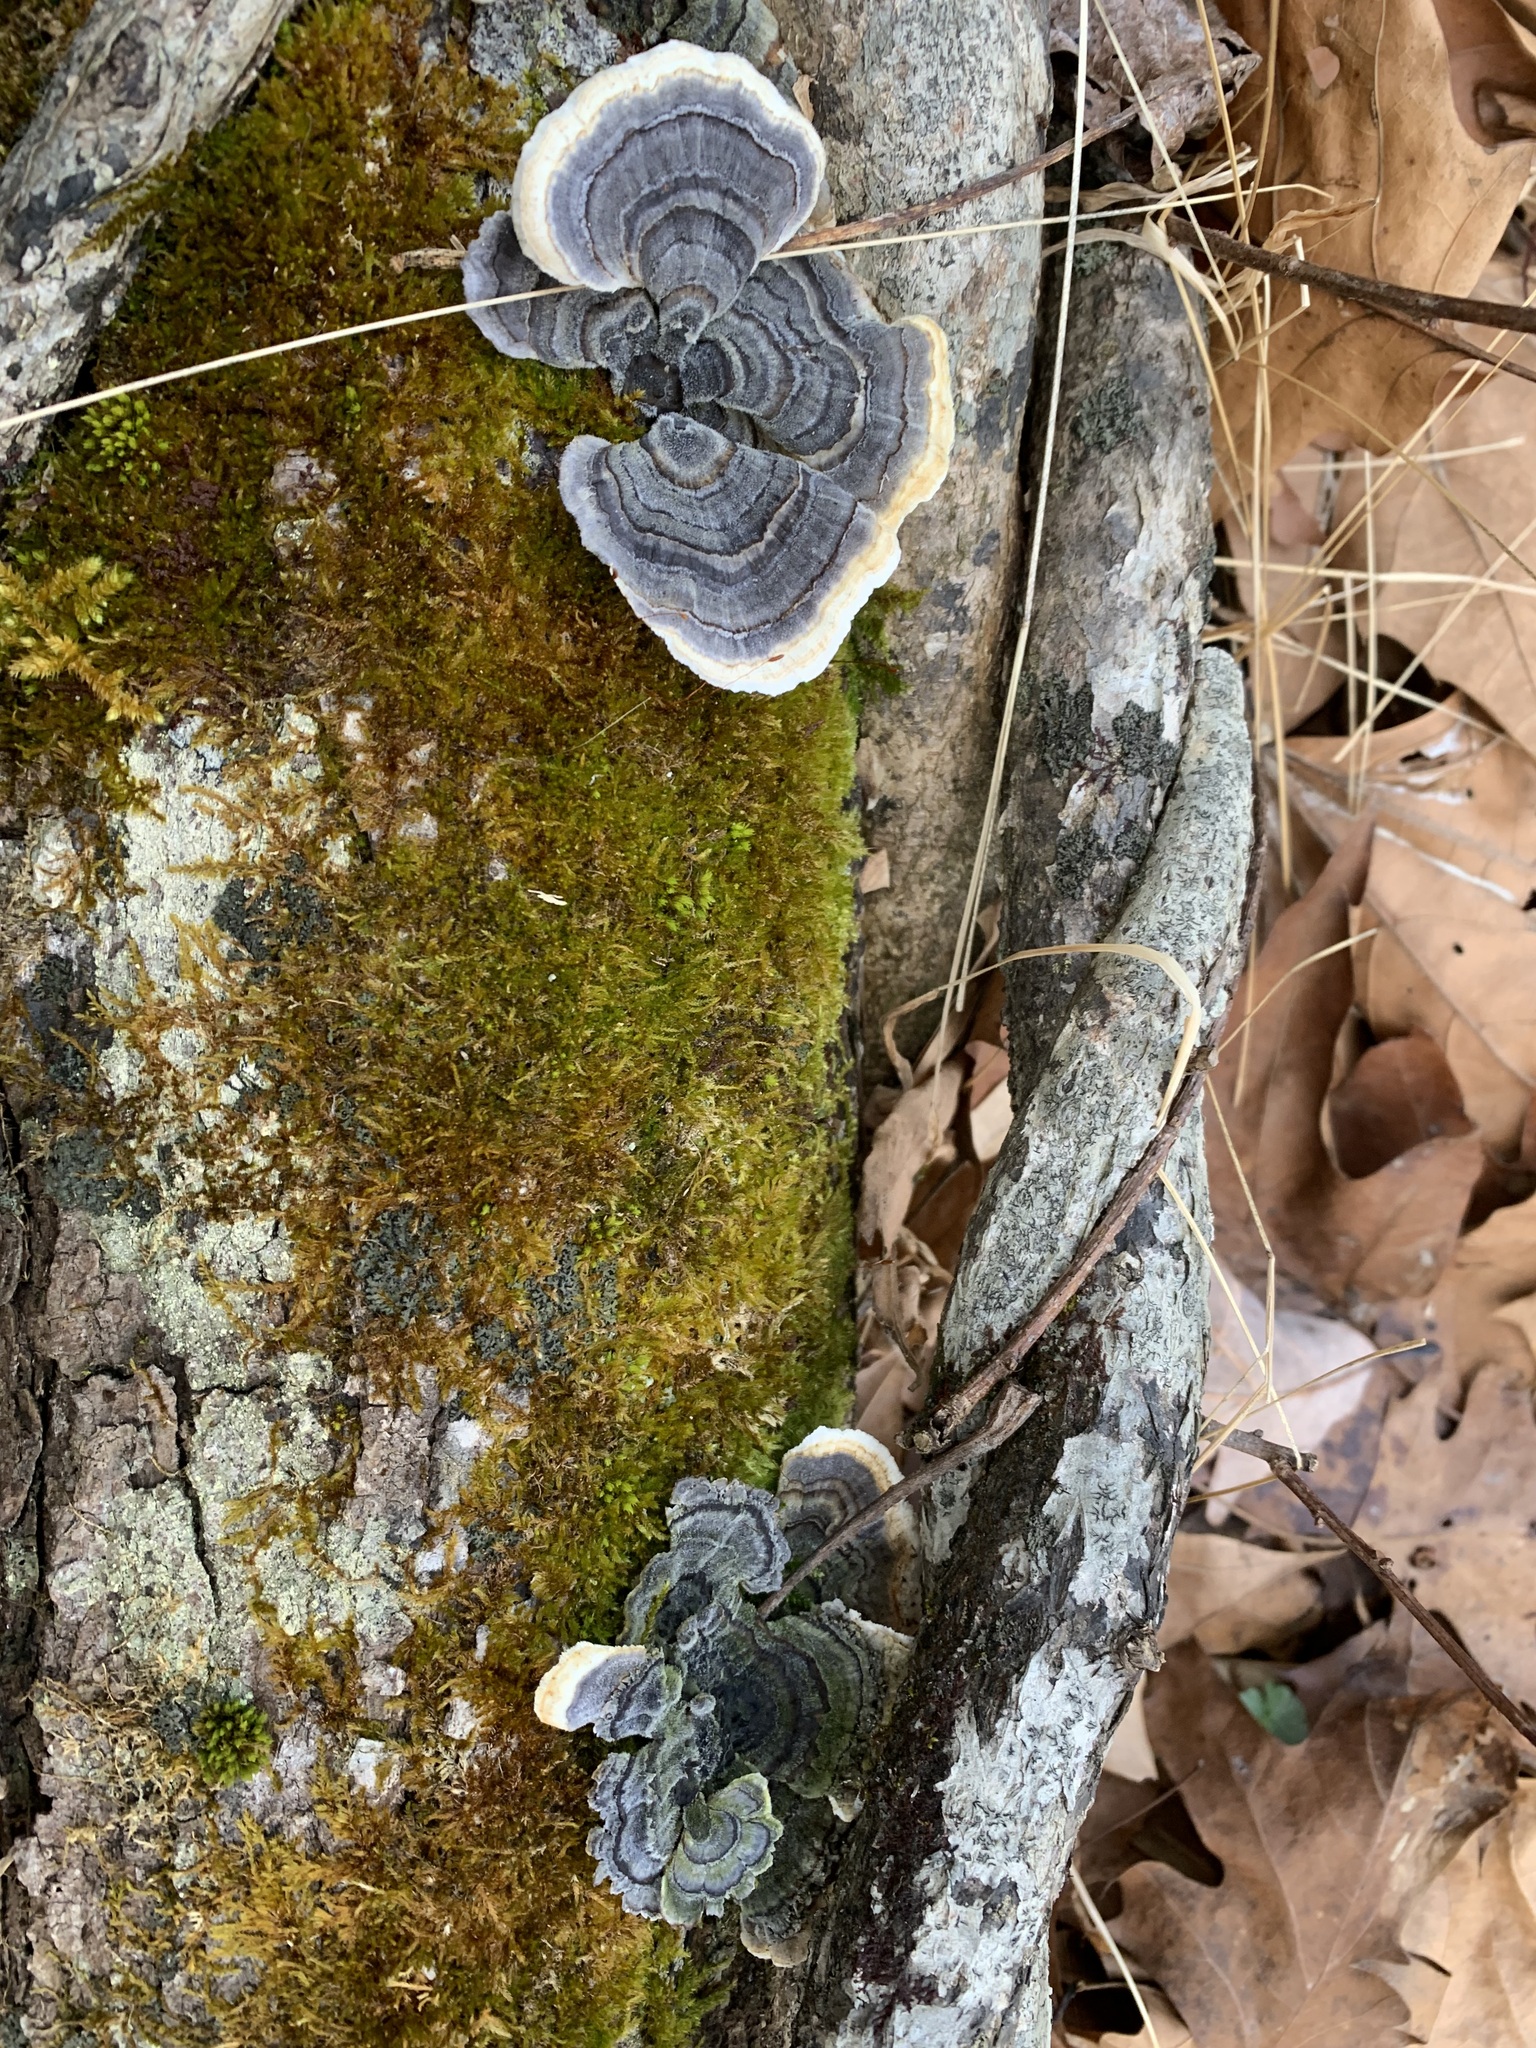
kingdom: Fungi
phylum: Basidiomycota
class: Agaricomycetes
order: Polyporales
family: Polyporaceae
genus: Trametes
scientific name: Trametes versicolor
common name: Turkeytail
